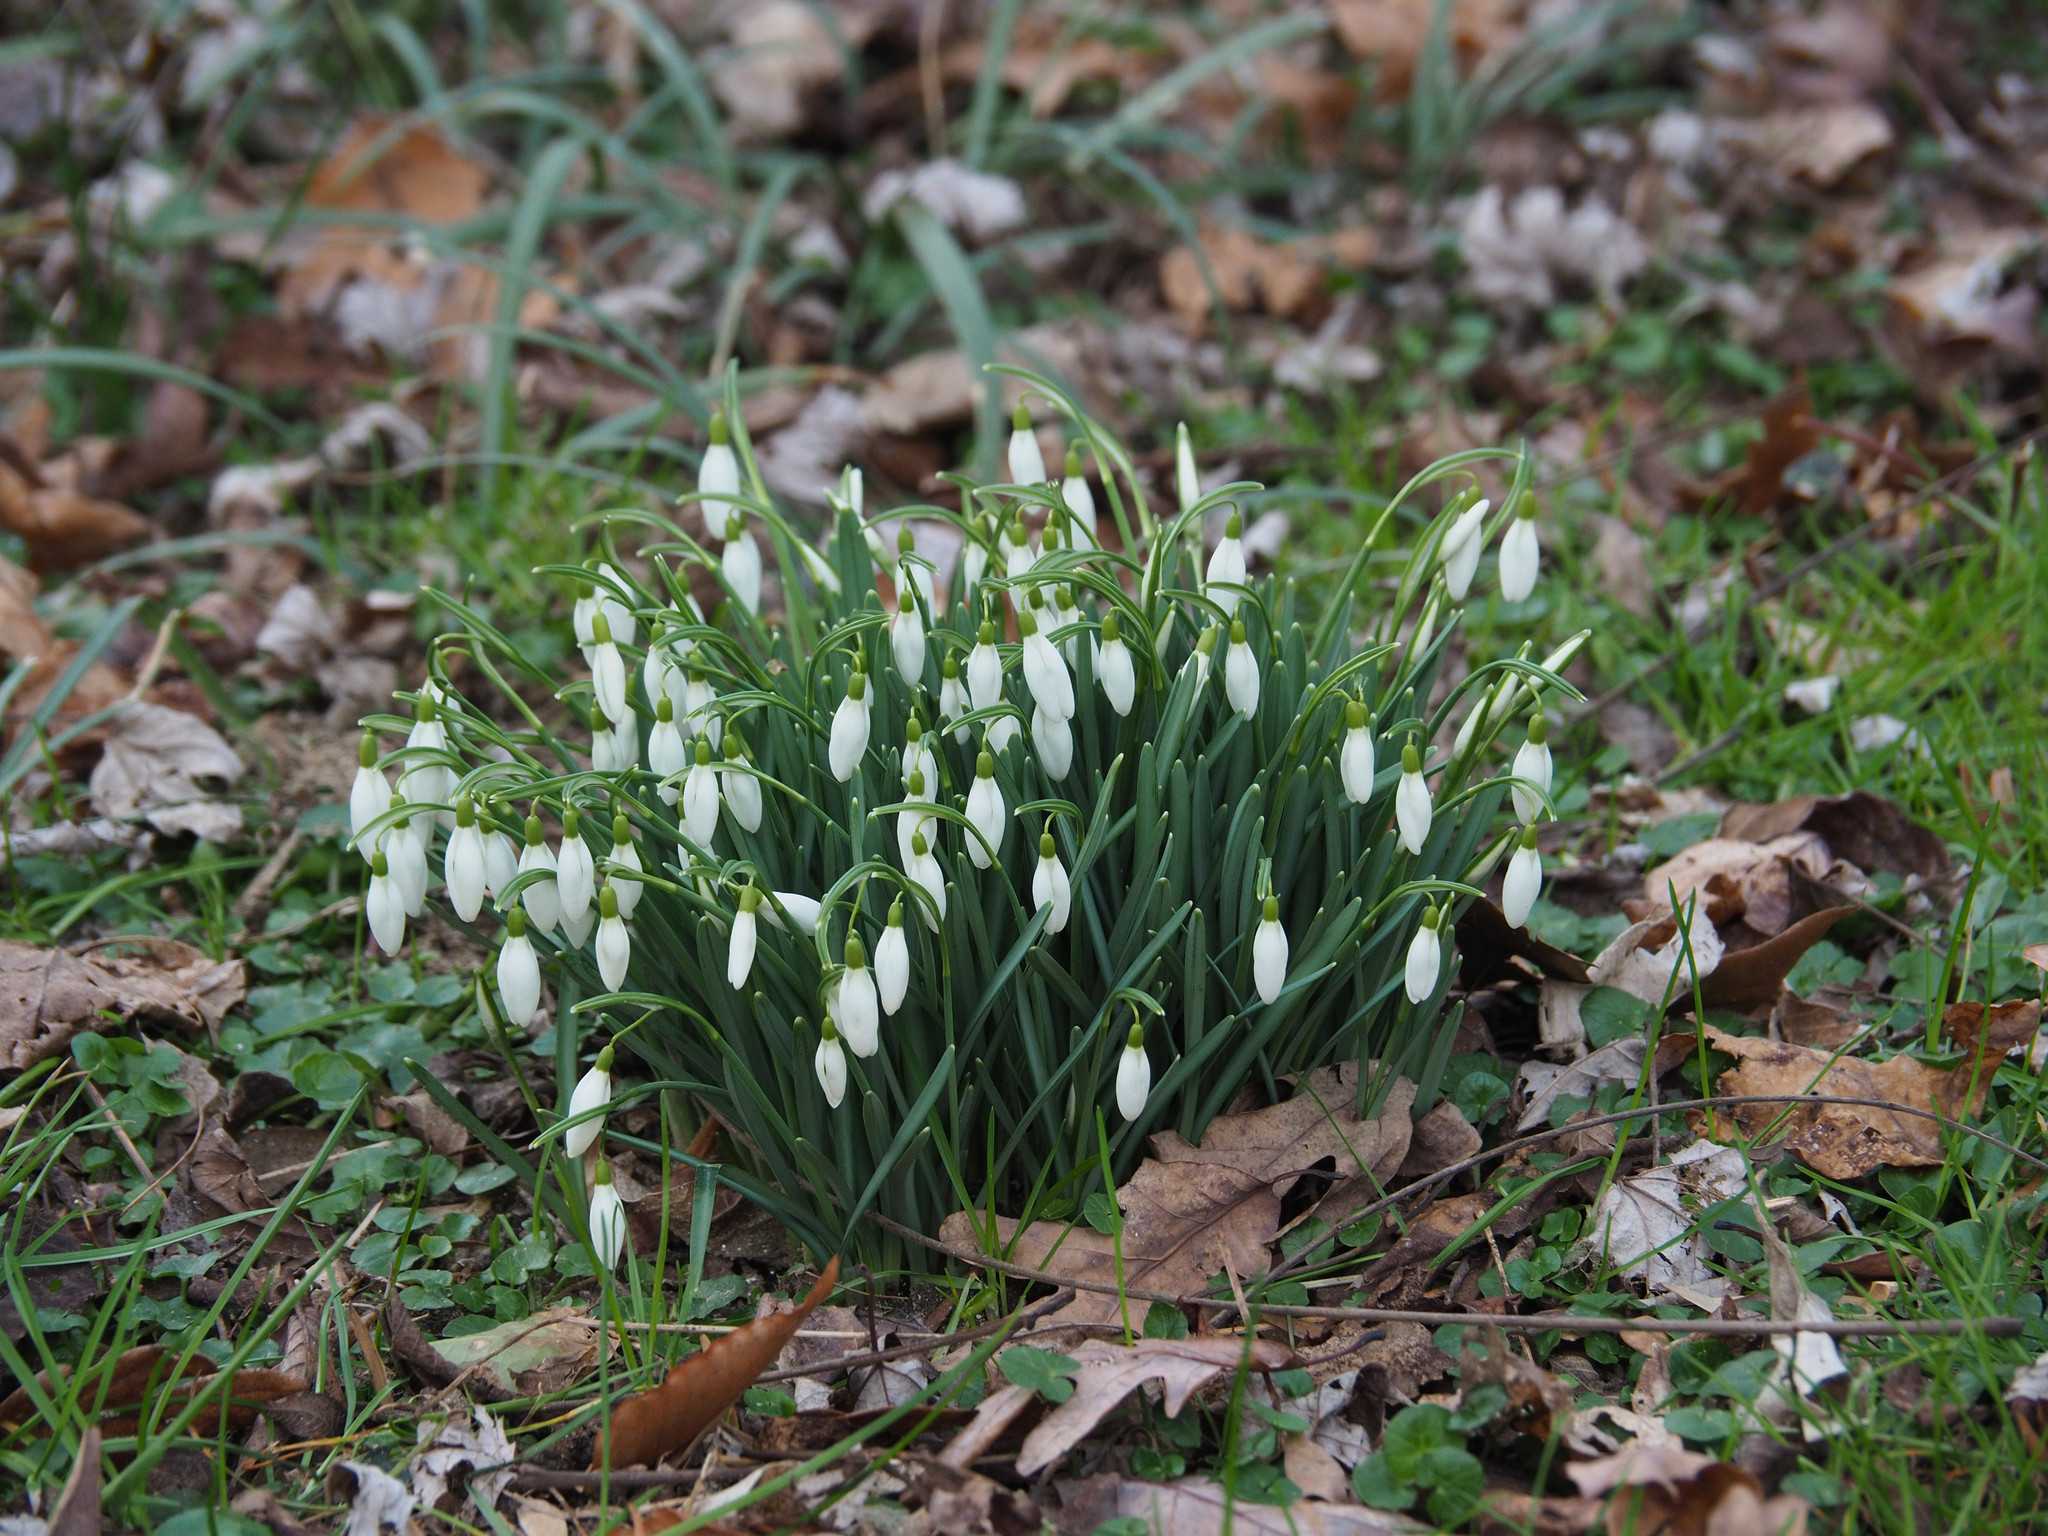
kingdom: Plantae
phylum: Tracheophyta
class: Liliopsida
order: Asparagales
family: Amaryllidaceae
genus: Galanthus
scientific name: Galanthus nivalis
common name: Snowdrop
